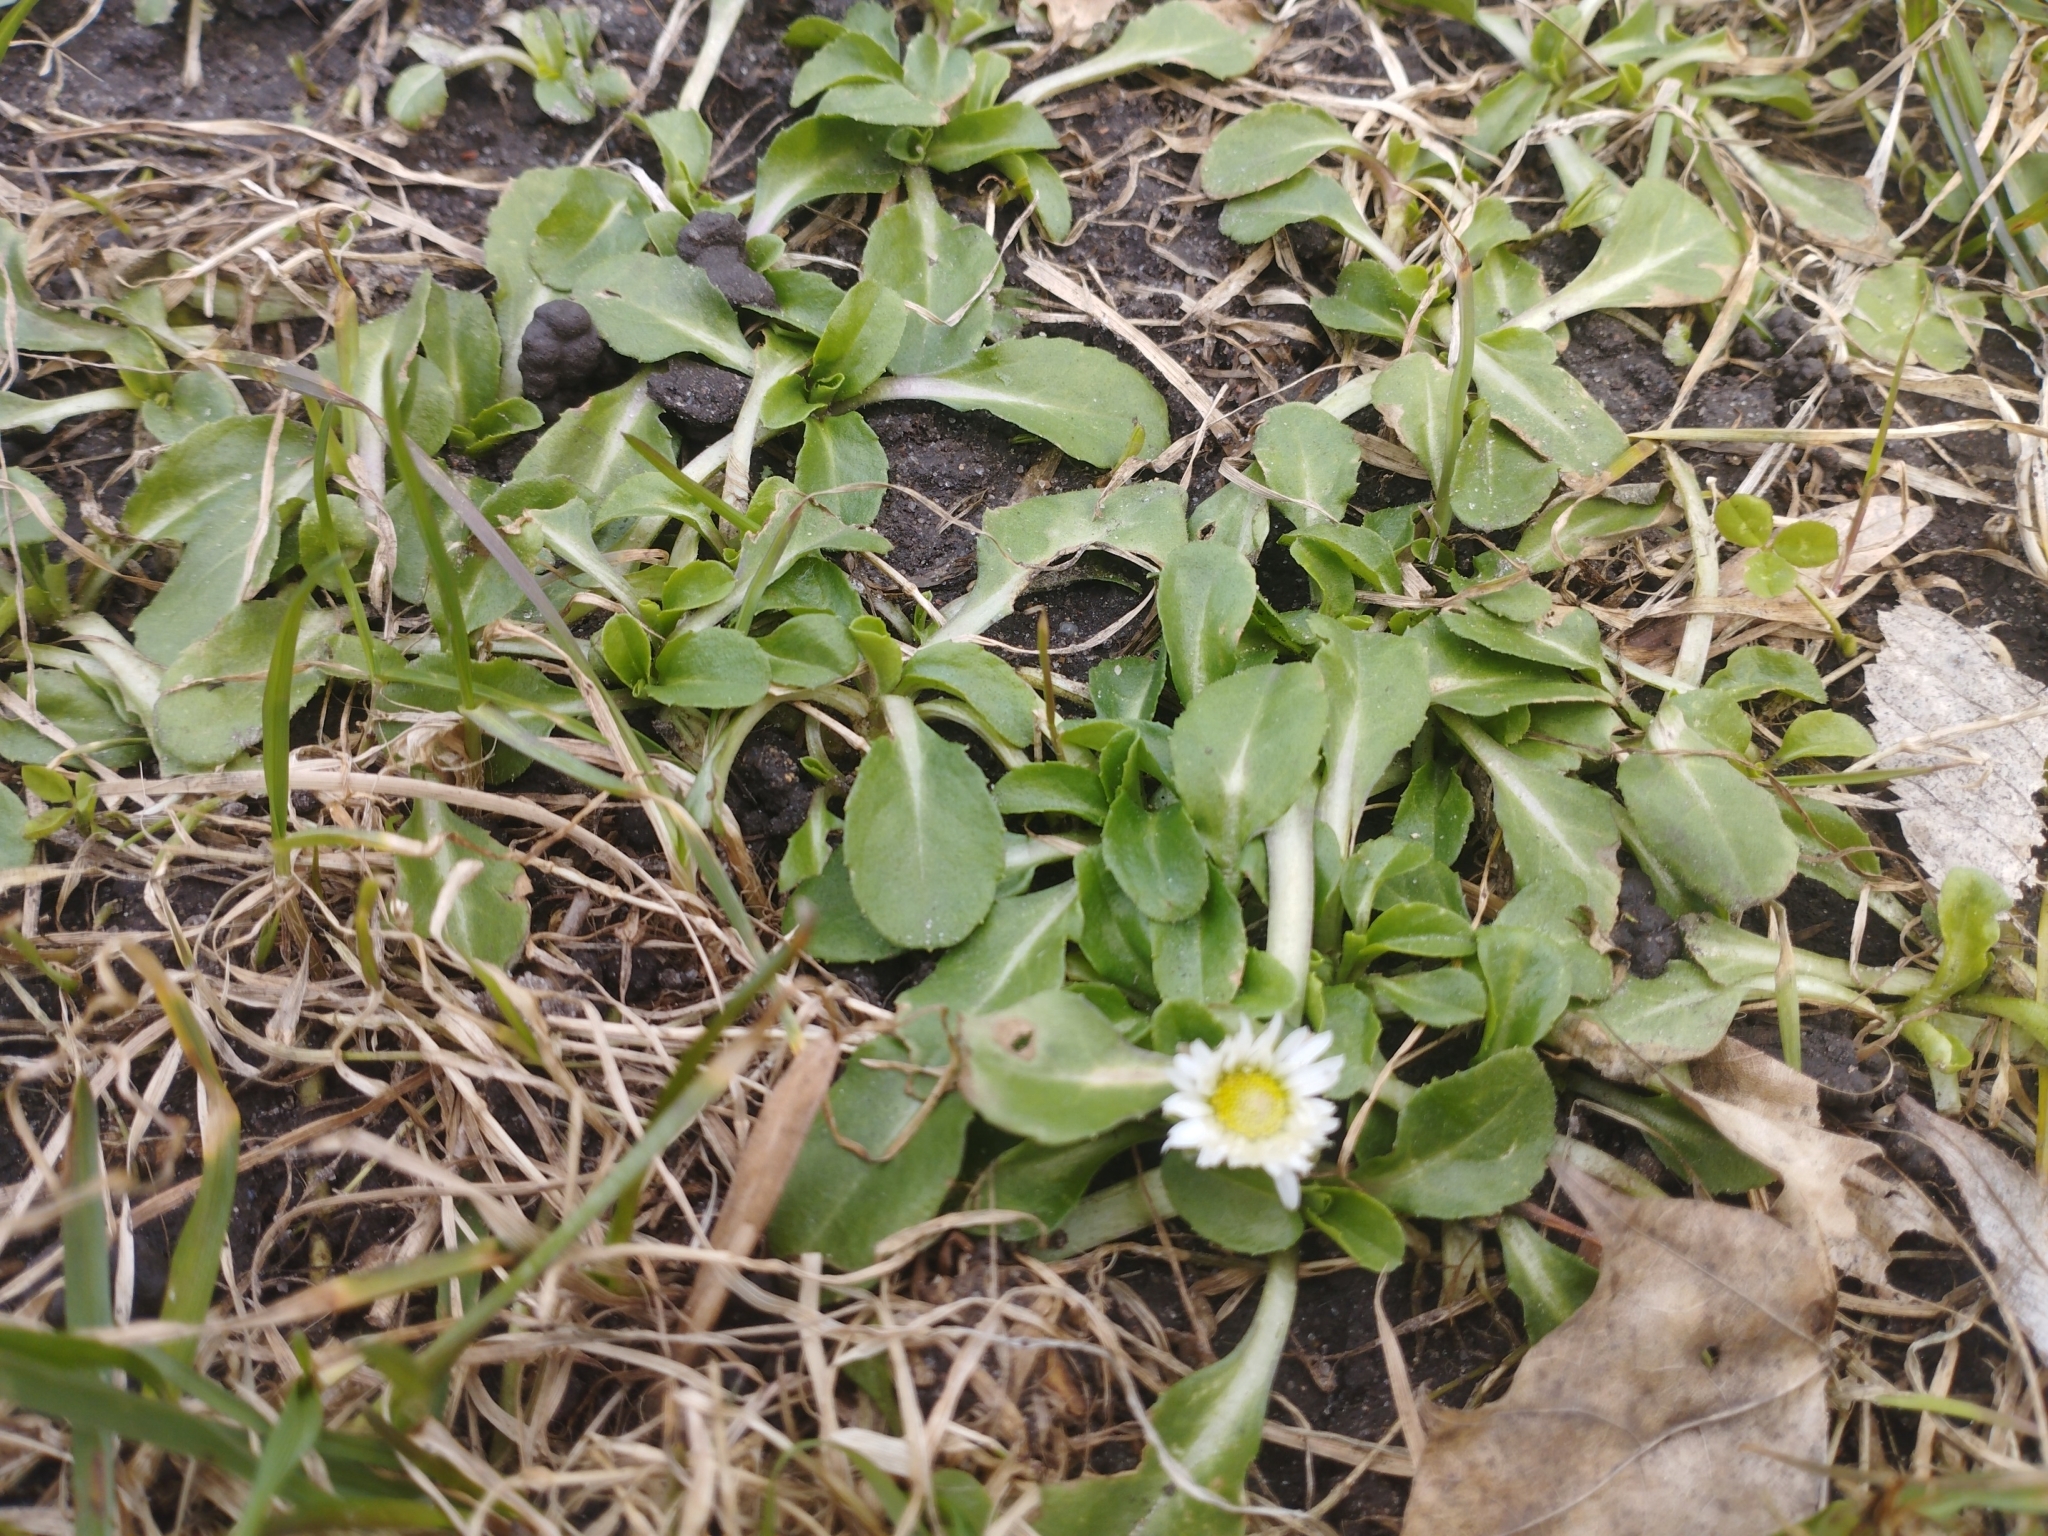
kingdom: Plantae
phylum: Tracheophyta
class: Magnoliopsida
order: Asterales
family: Asteraceae
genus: Bellis
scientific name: Bellis perennis
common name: Lawndaisy
